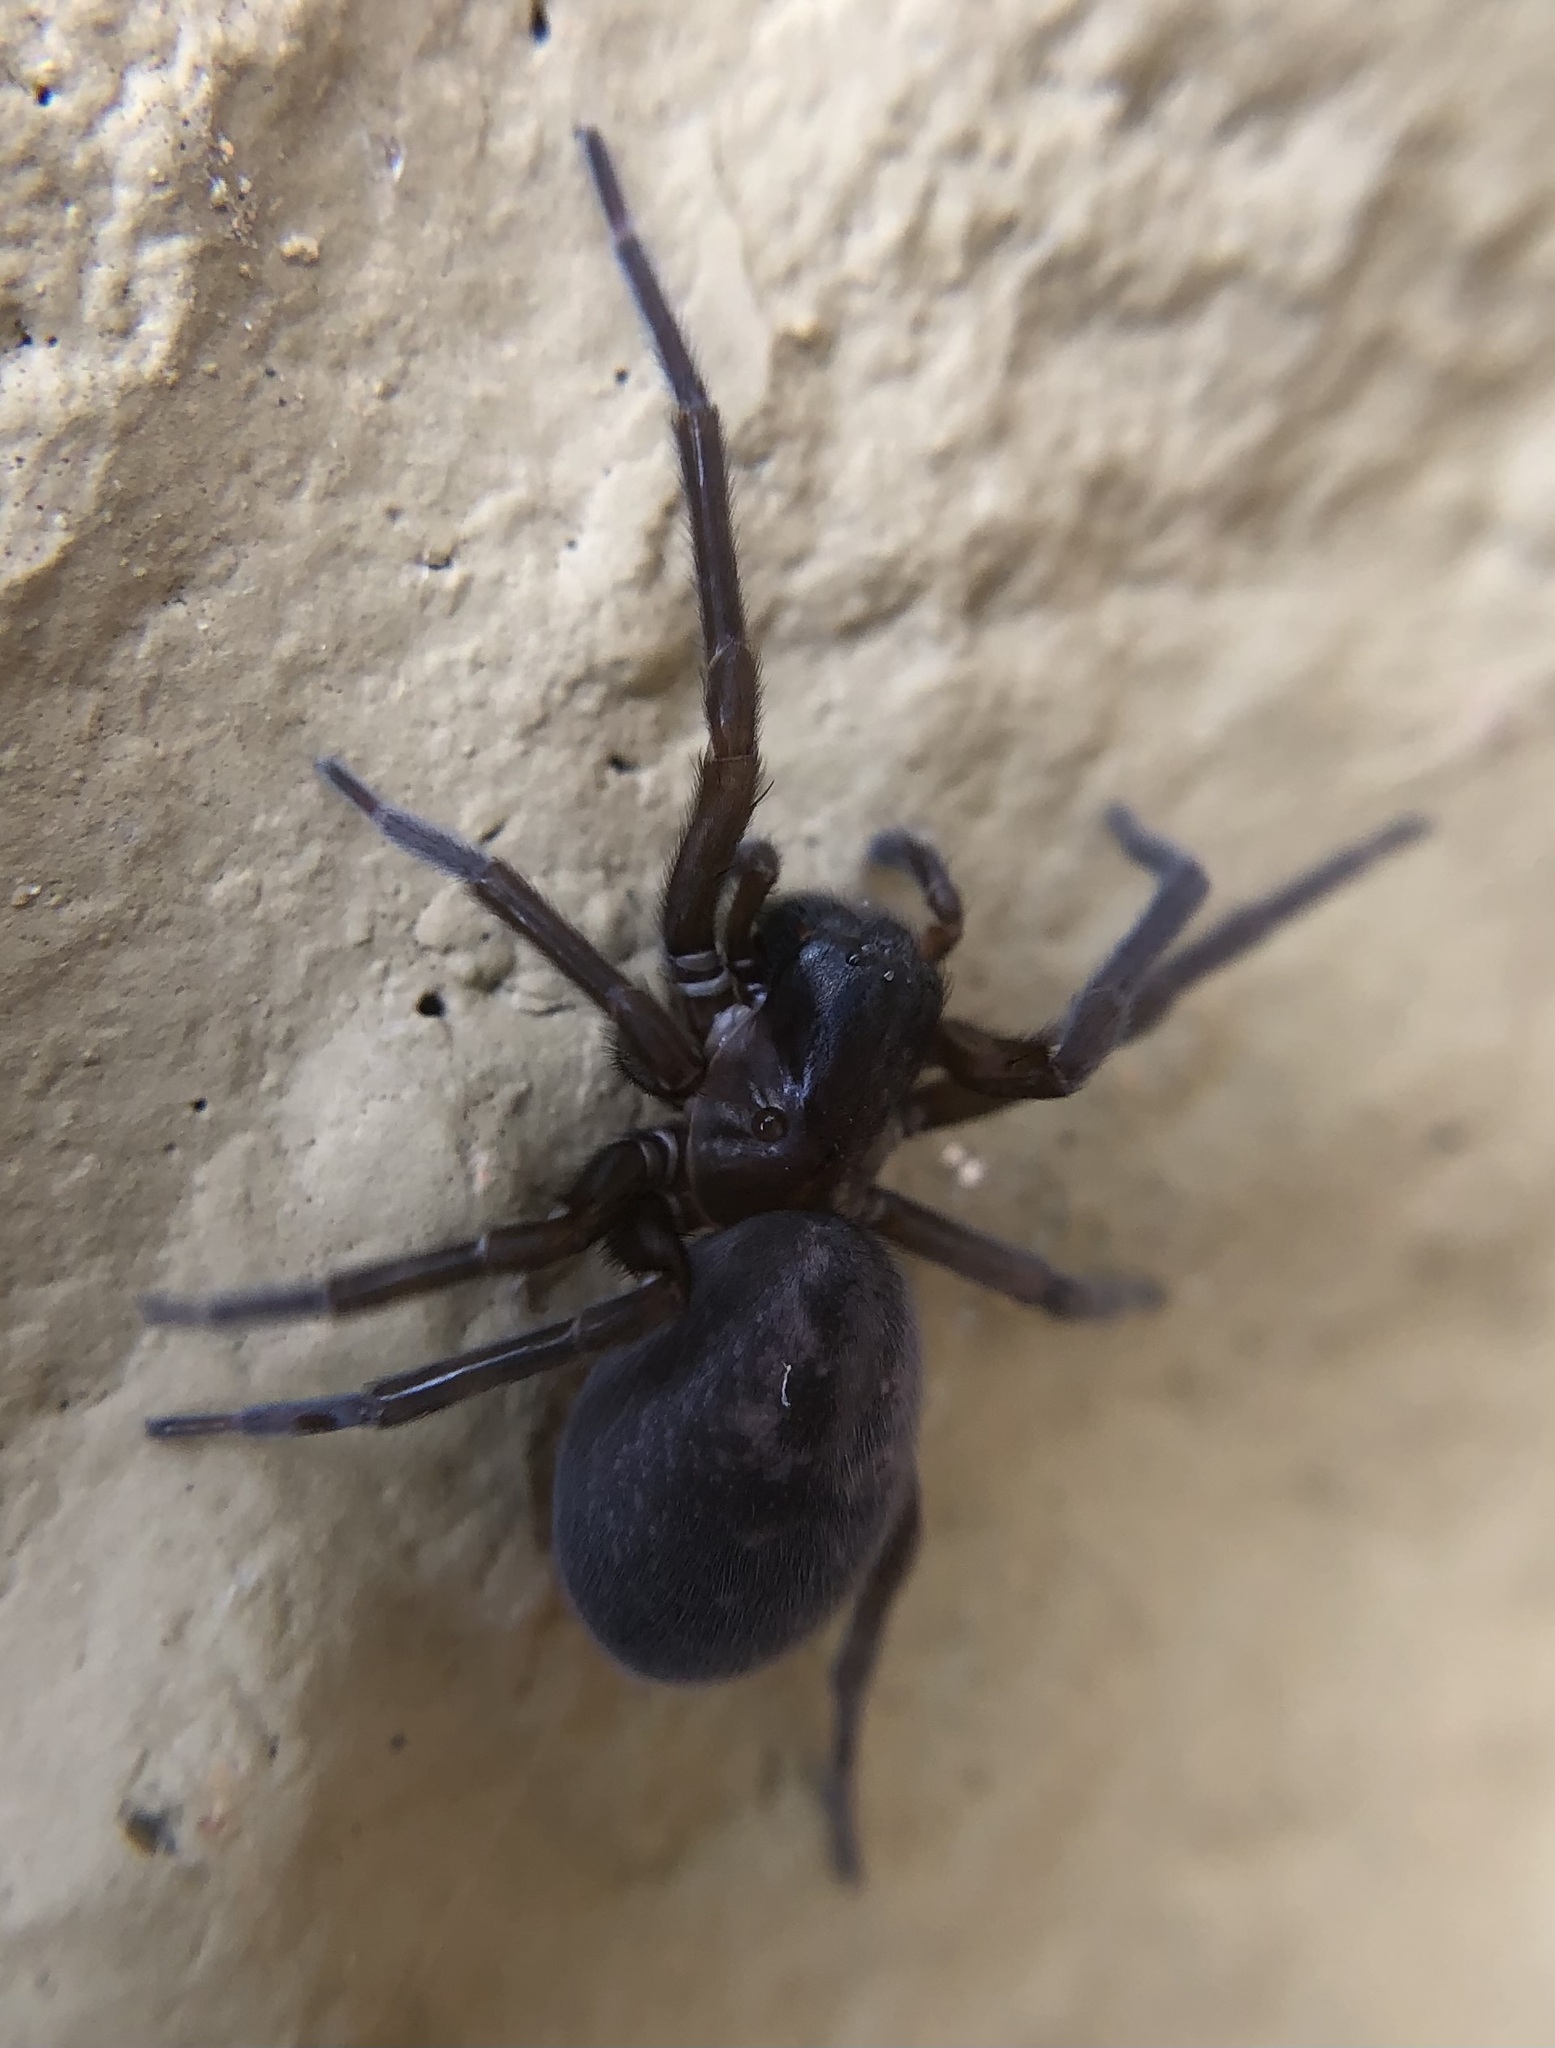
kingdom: Animalia
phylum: Arthropoda
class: Arachnida
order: Araneae
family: Amaurobiidae
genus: Amaurobius
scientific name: Amaurobius ferox
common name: Black laceweaver
